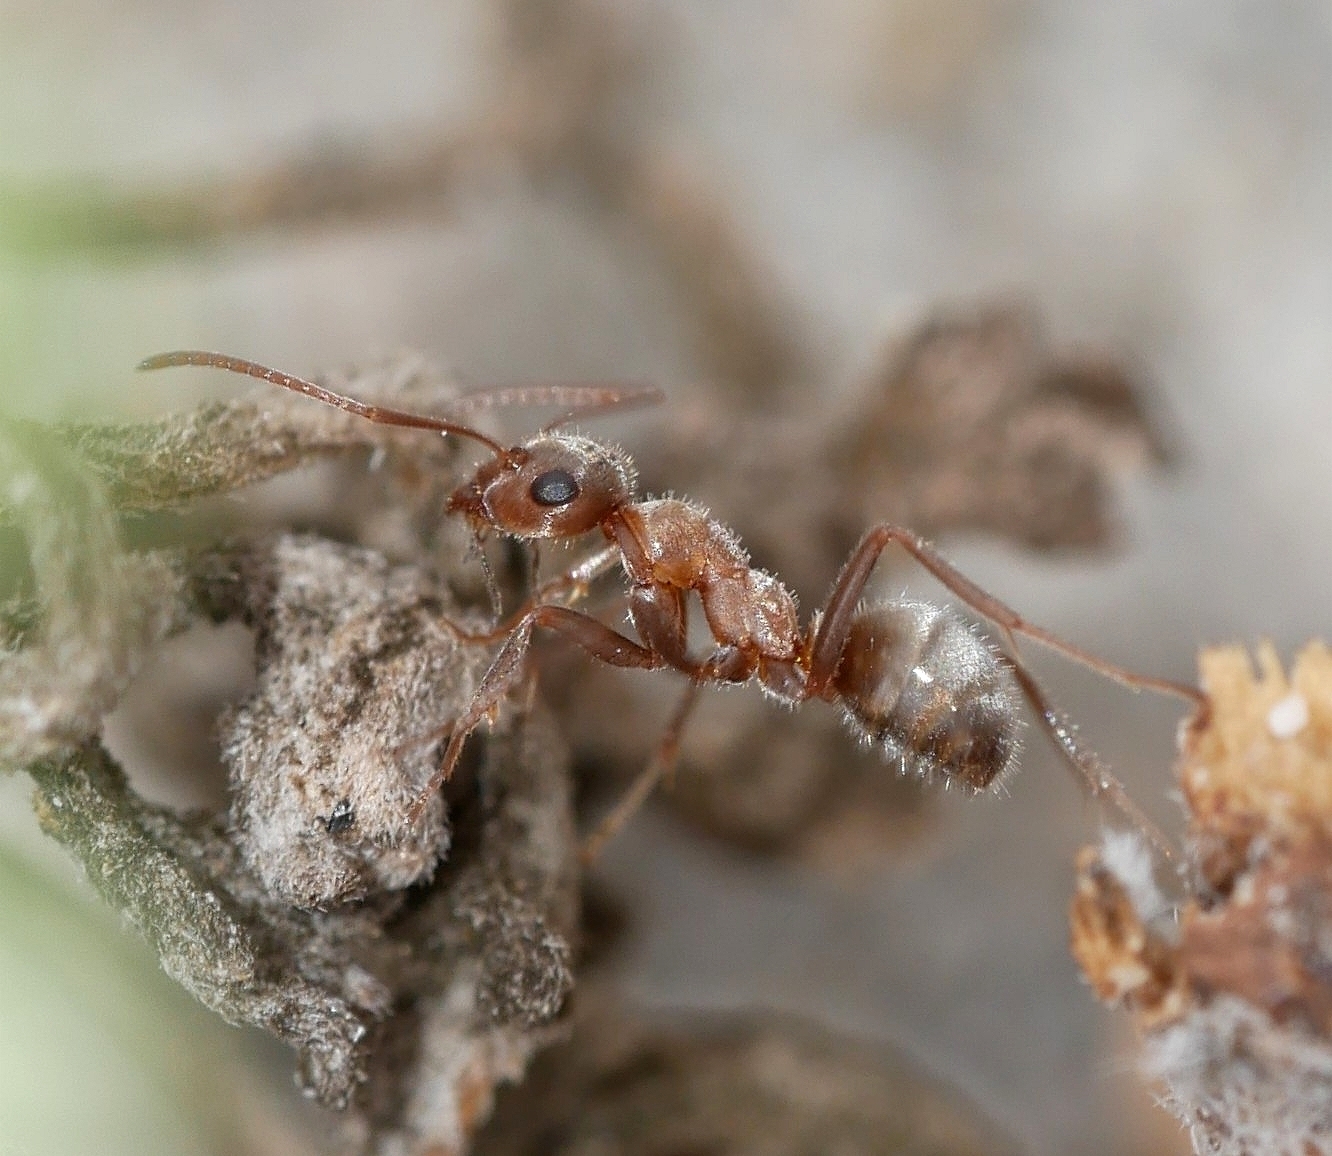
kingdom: Animalia
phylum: Arthropoda
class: Insecta
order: Hymenoptera
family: Formicidae
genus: Formica
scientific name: Formica francoeuri
